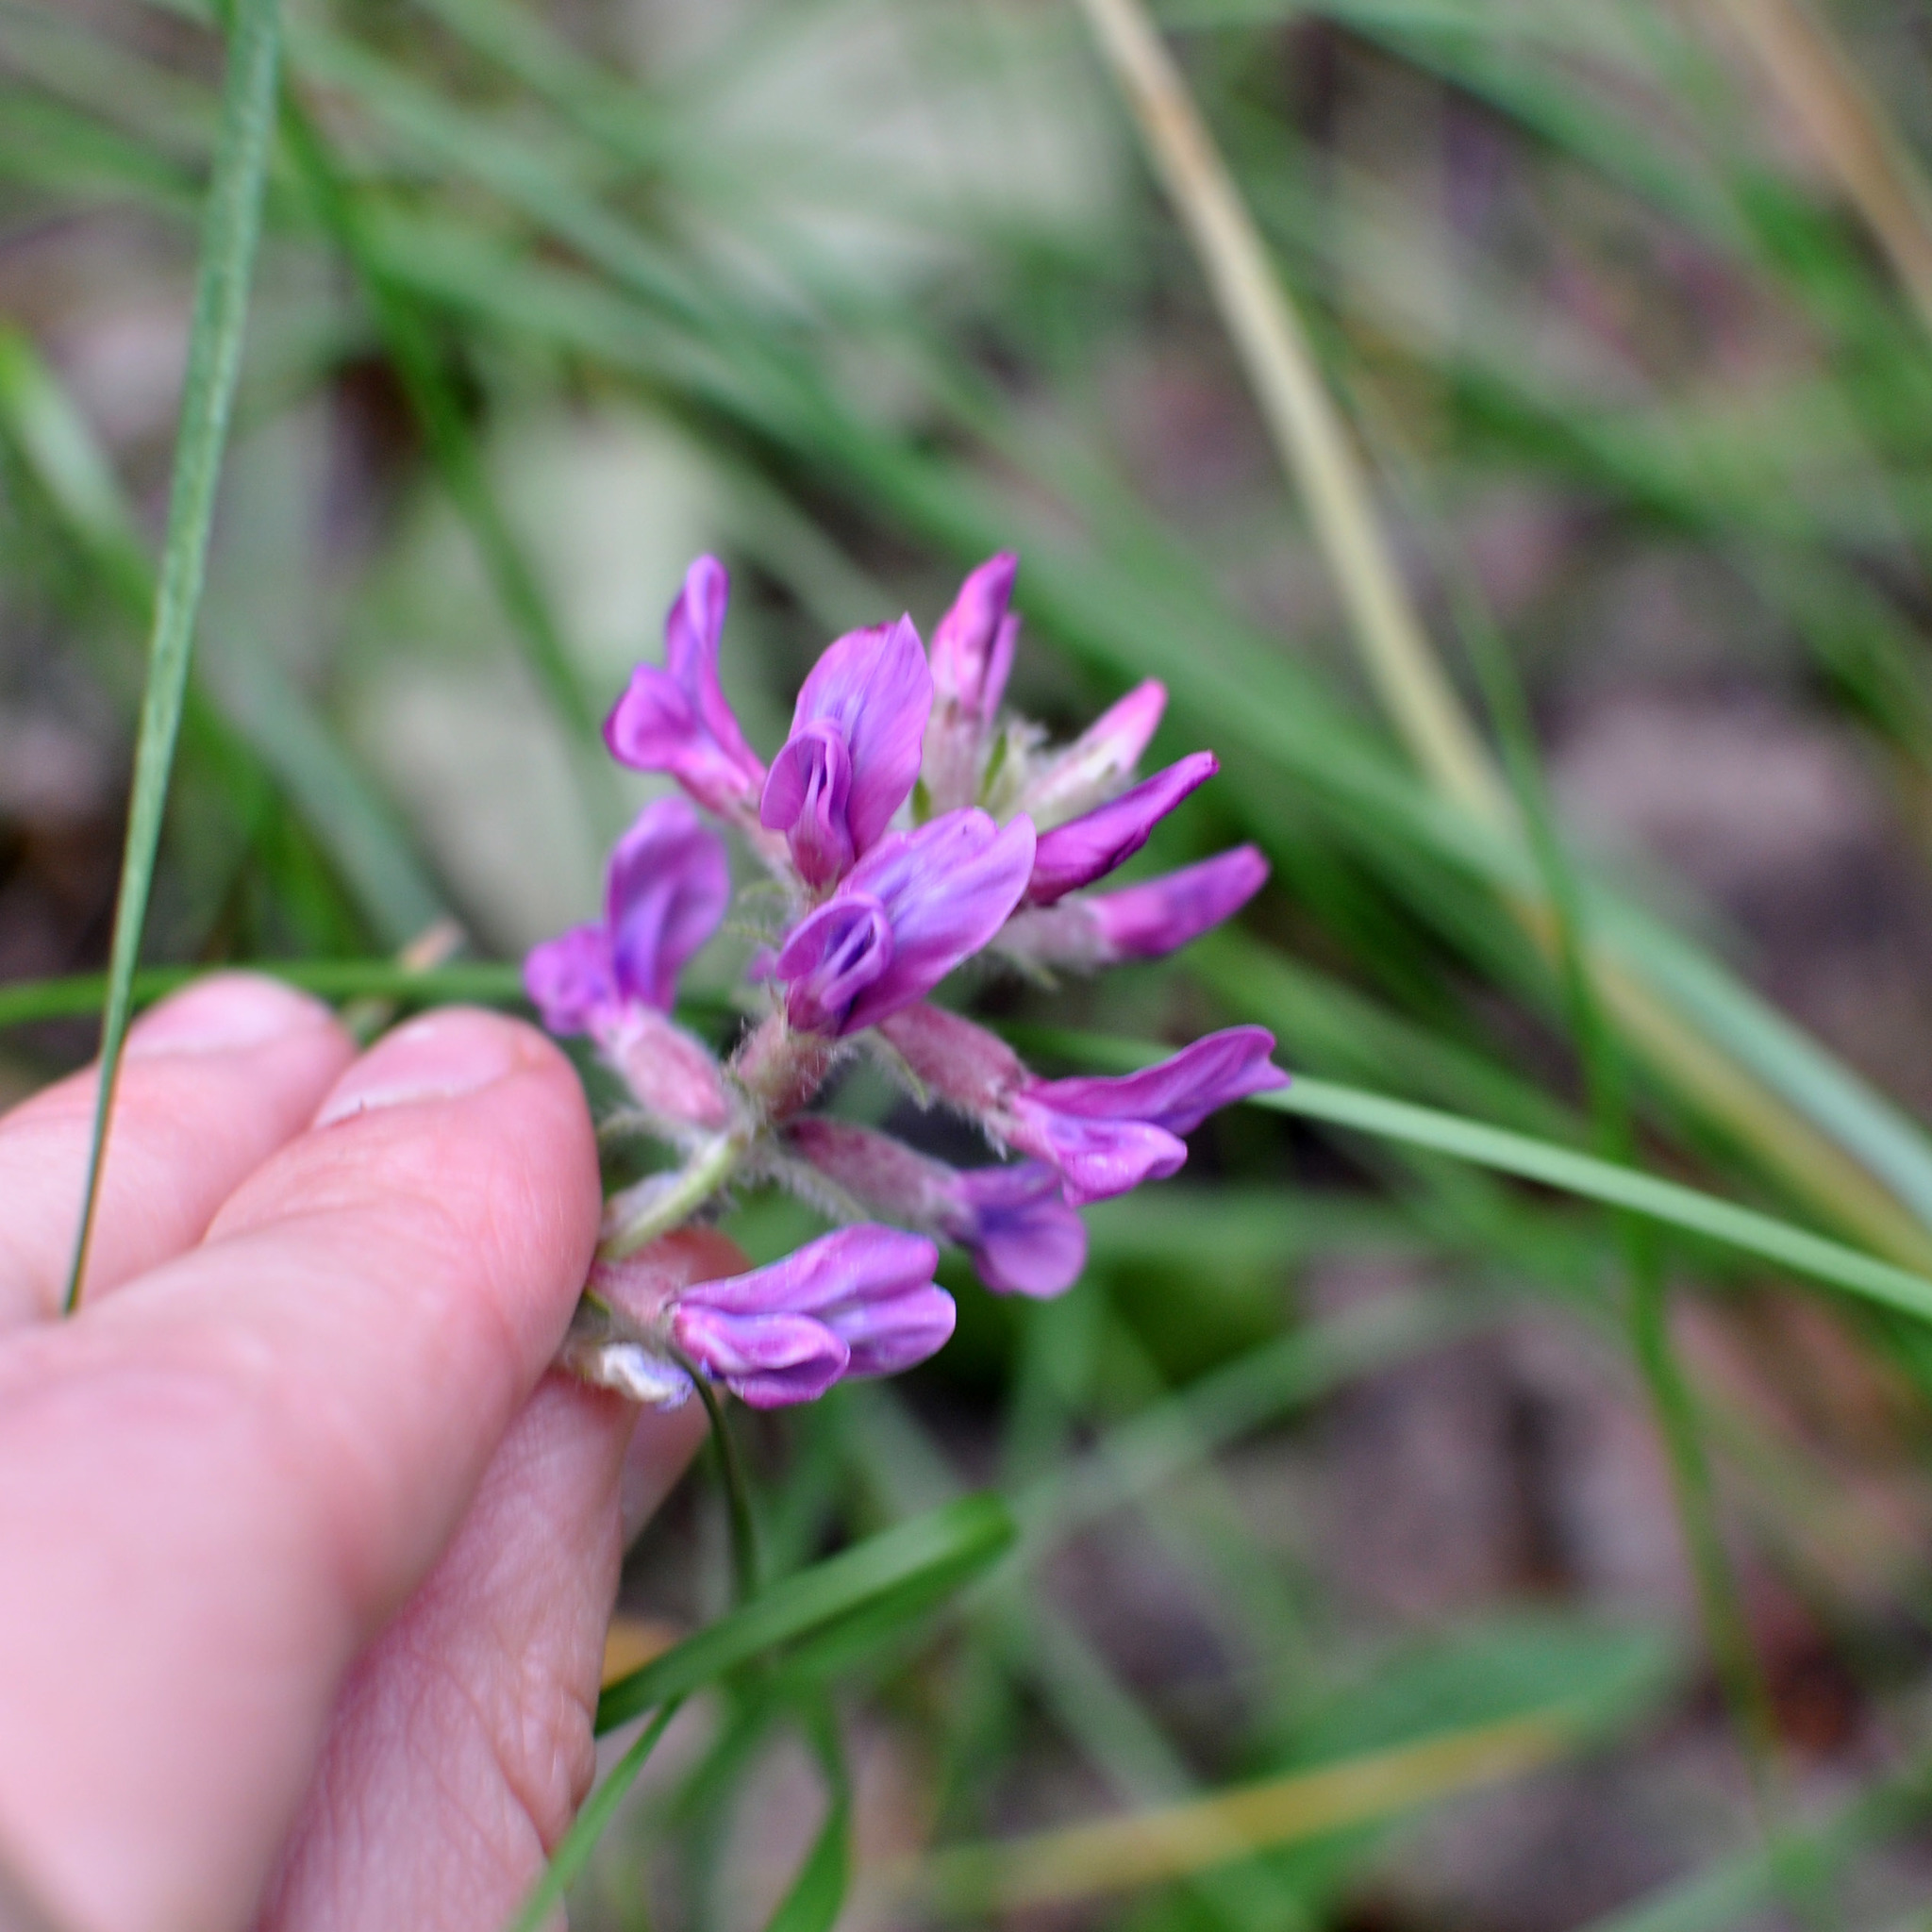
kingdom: Plantae
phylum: Tracheophyta
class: Magnoliopsida
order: Fabales
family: Fabaceae
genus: Oxytropis
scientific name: Oxytropis campanulata
